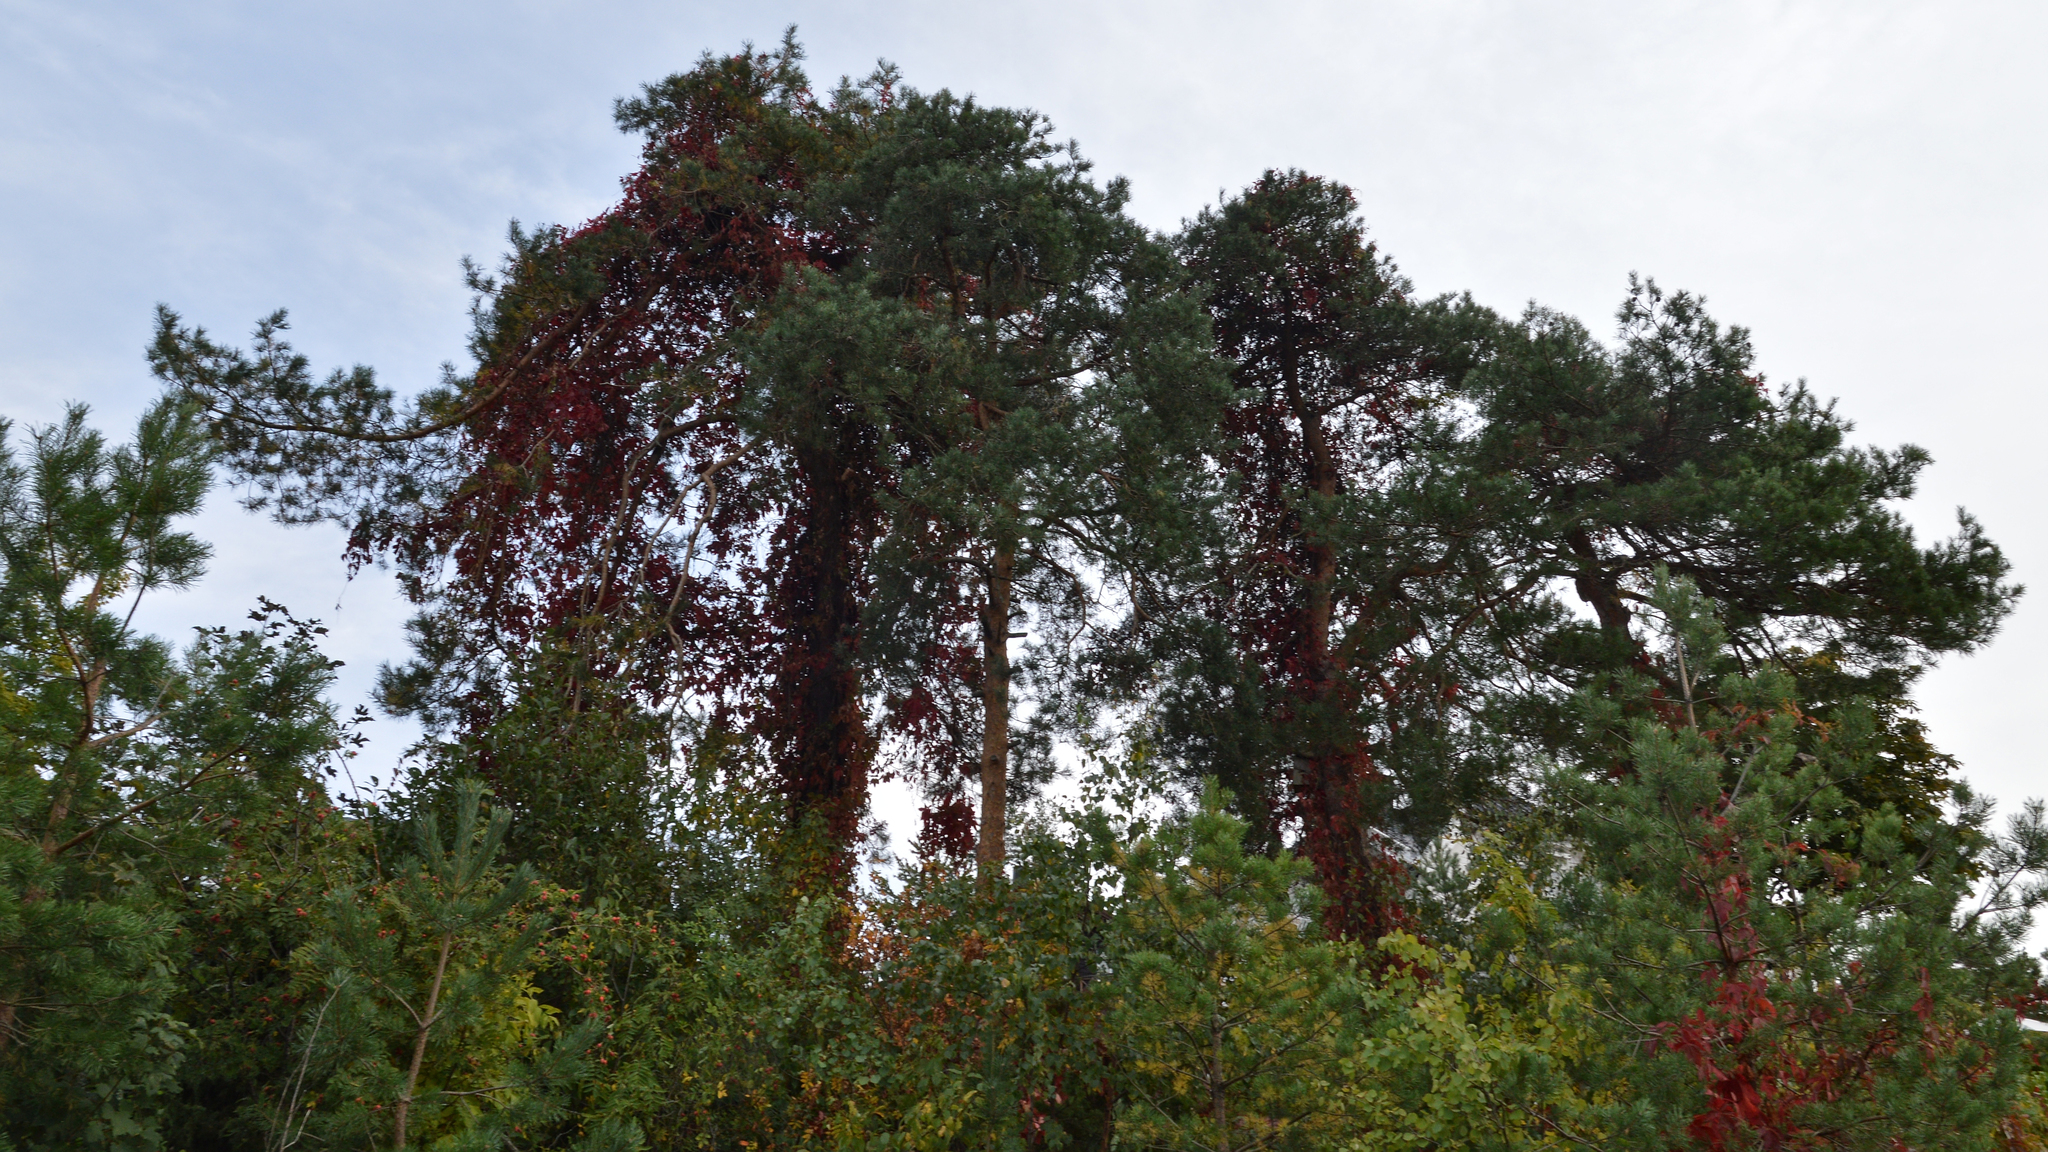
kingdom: Plantae
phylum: Tracheophyta
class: Pinopsida
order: Pinales
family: Pinaceae
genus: Pinus
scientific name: Pinus sylvestris
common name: Scots pine
